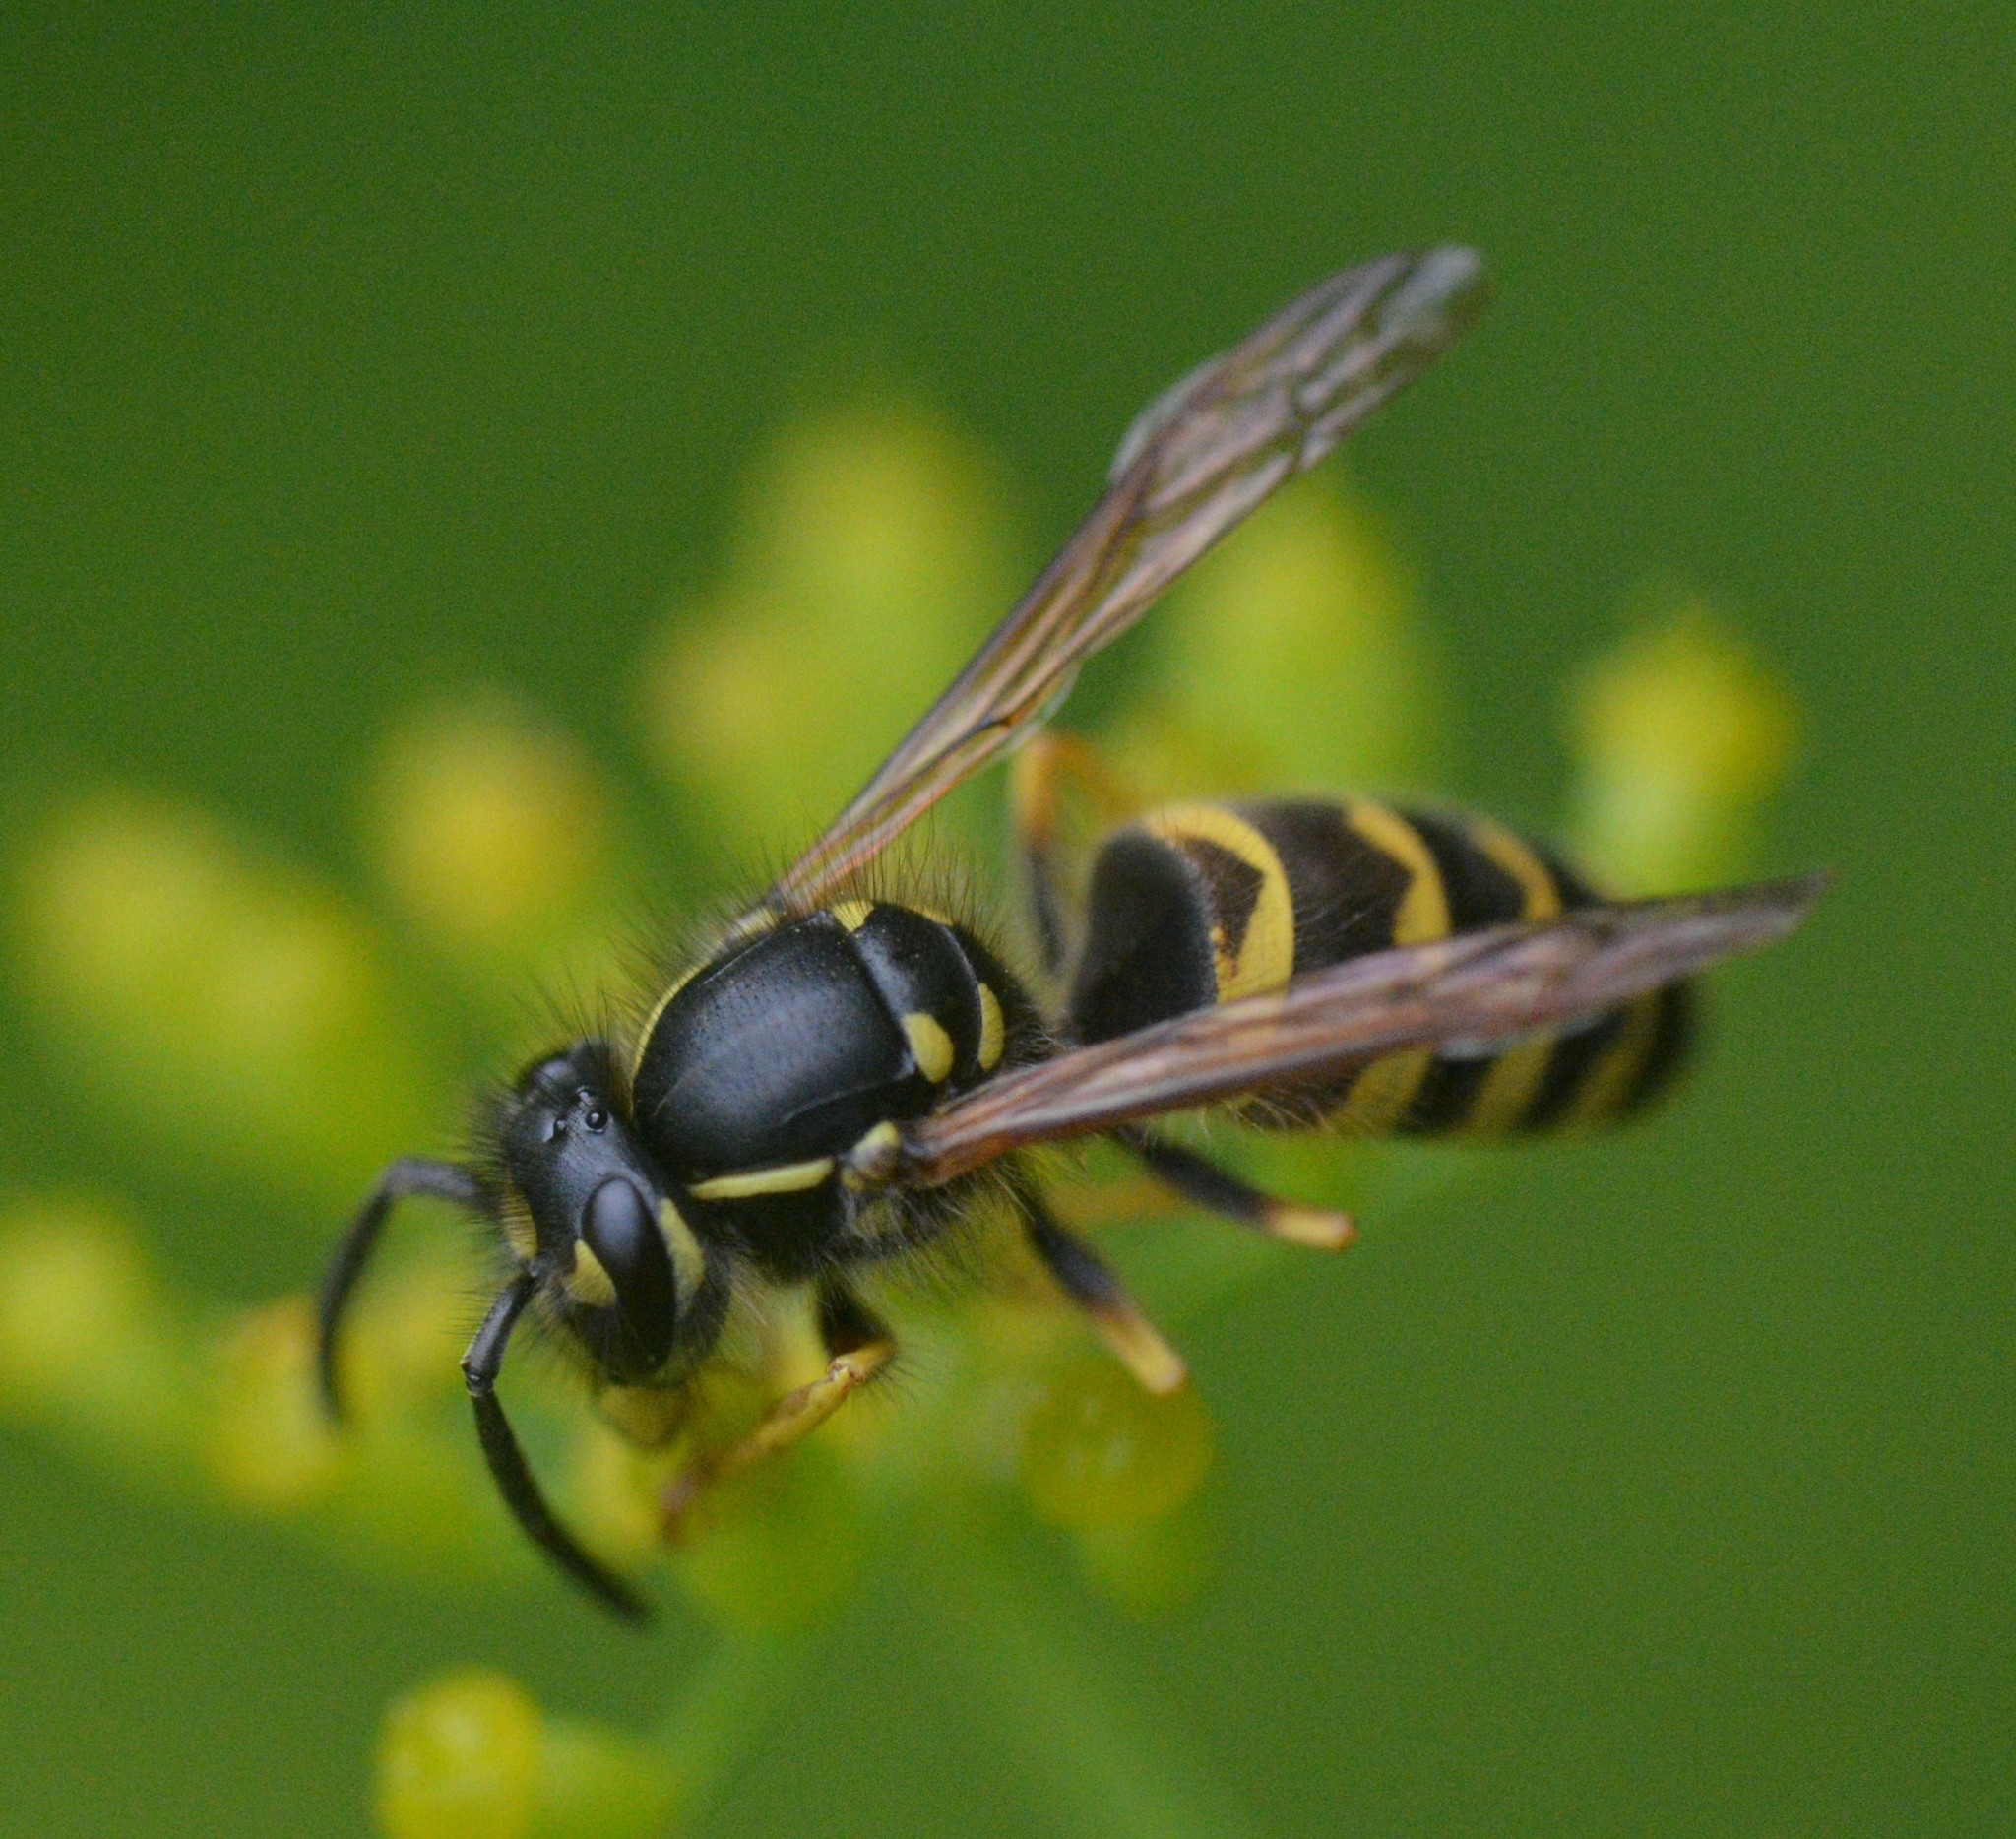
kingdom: Animalia
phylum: Arthropoda
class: Insecta
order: Hymenoptera
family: Vespidae
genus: Vespula
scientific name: Vespula alascensis
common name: Alaska yellowjacket
